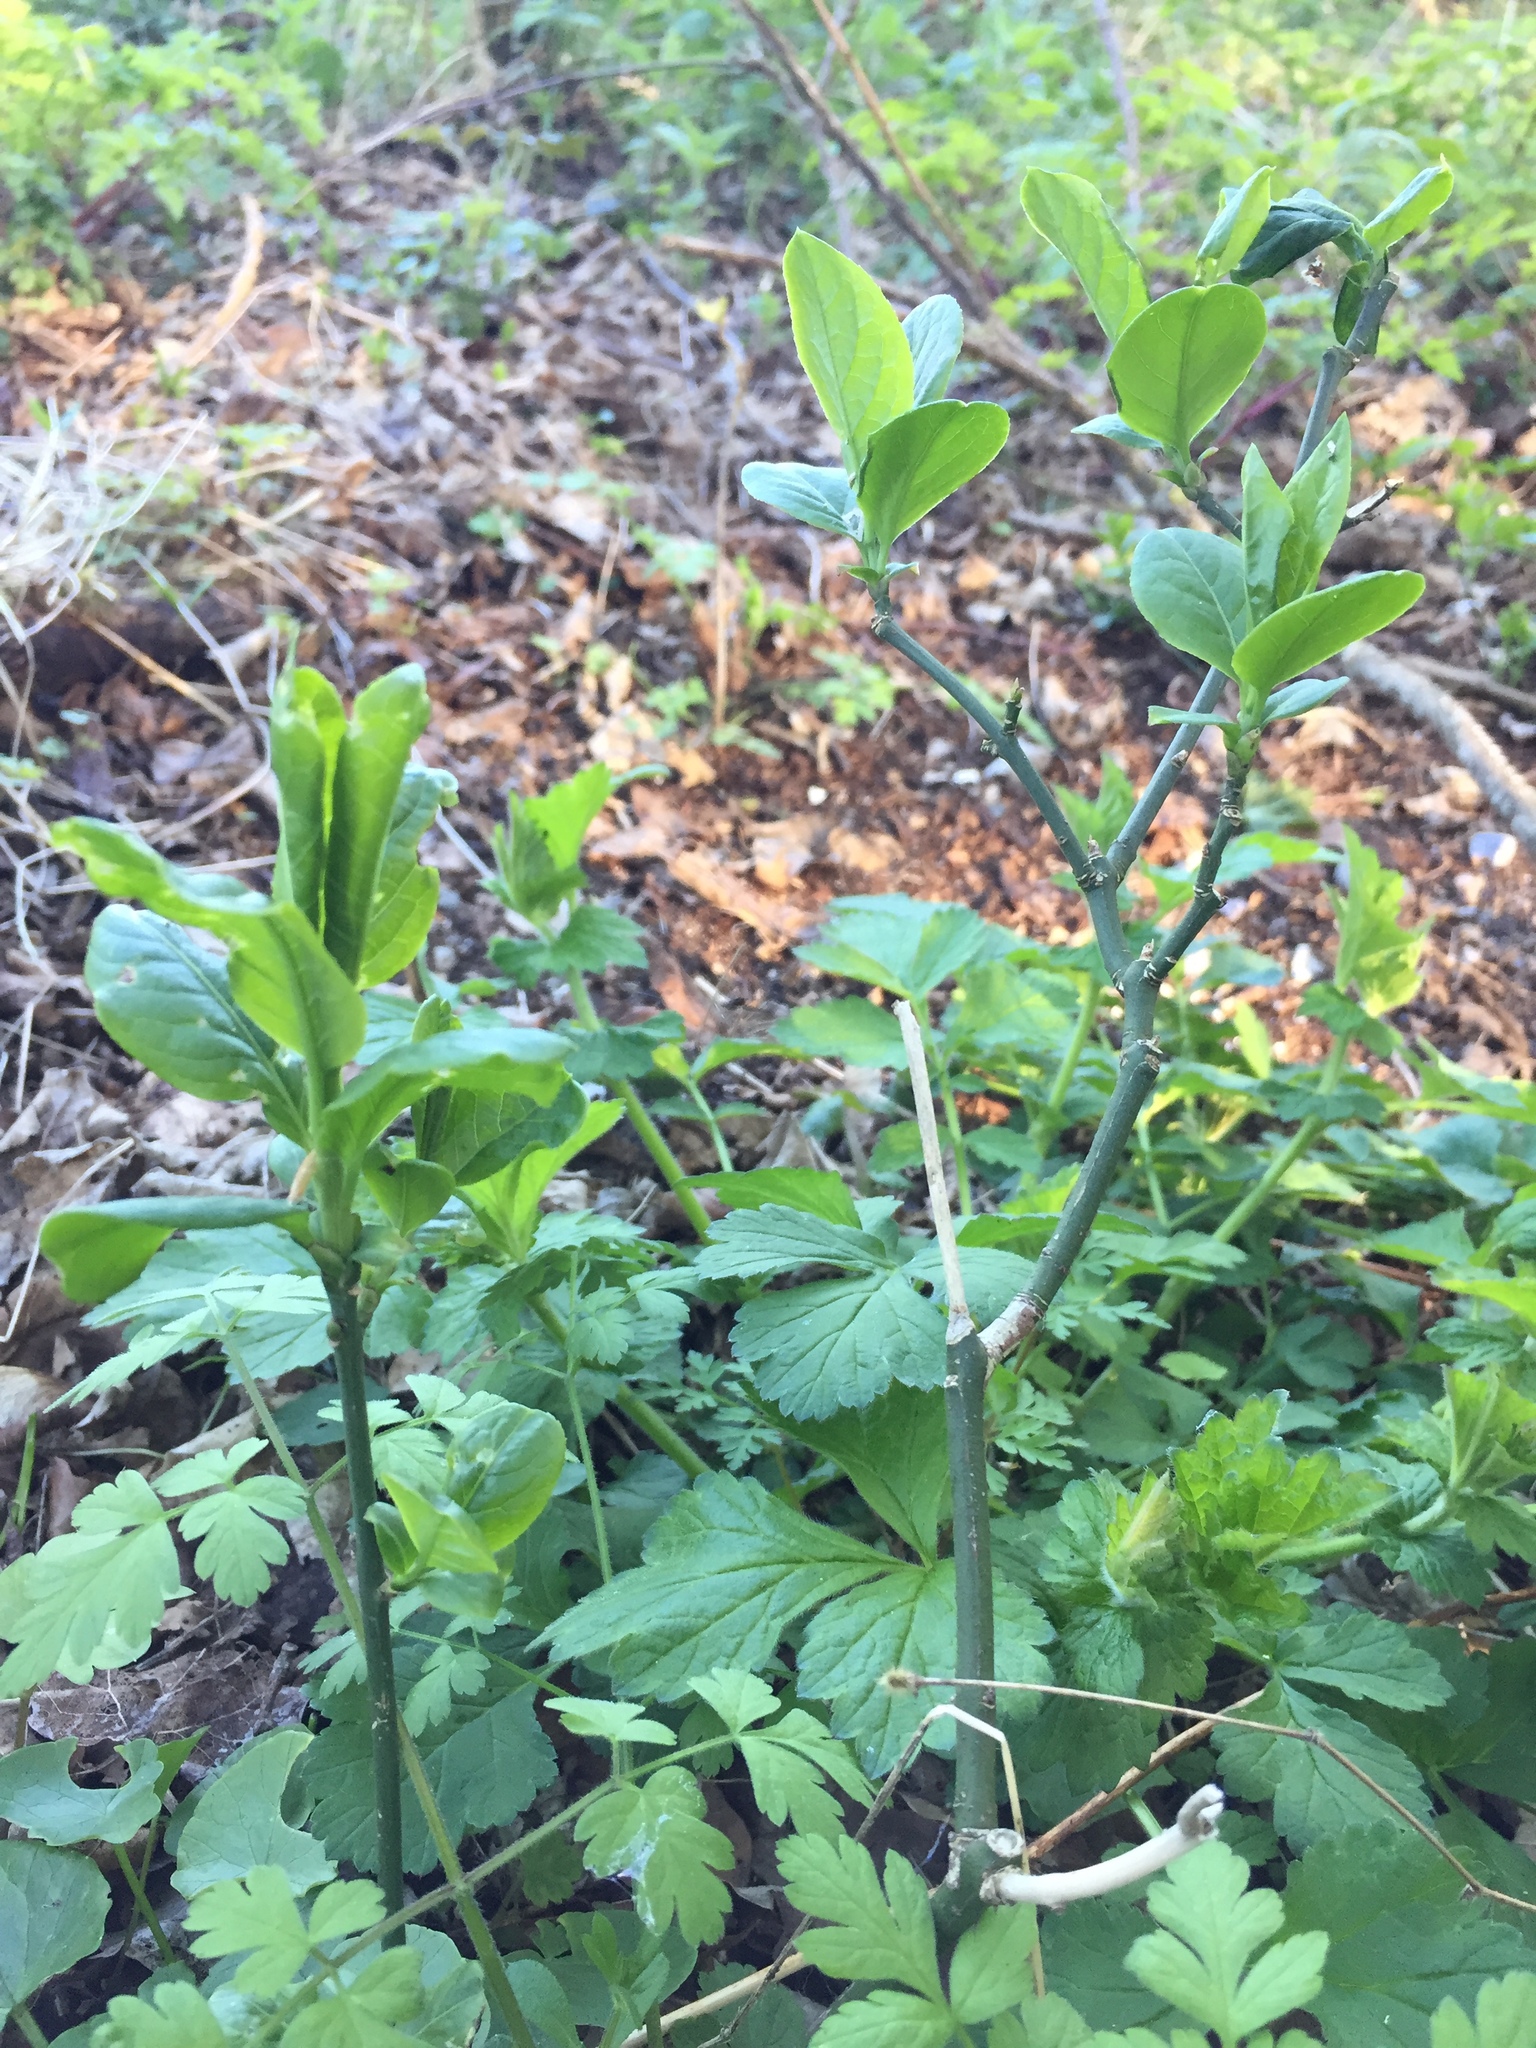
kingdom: Plantae
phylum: Tracheophyta
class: Magnoliopsida
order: Celastrales
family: Celastraceae
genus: Euonymus
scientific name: Euonymus europaeus
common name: Spindle
